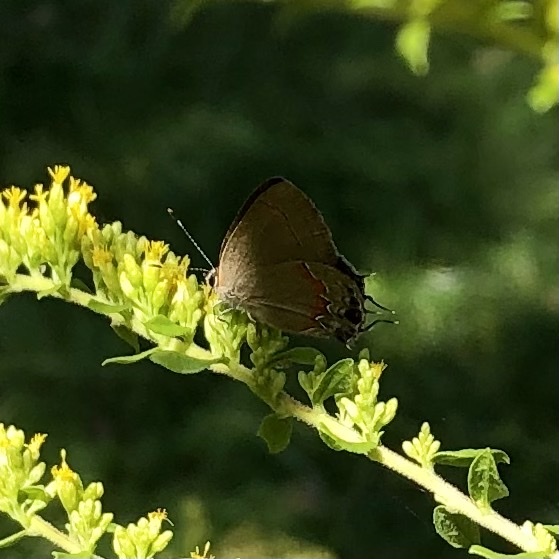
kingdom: Animalia
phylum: Arthropoda
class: Insecta
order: Lepidoptera
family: Lycaenidae
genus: Calycopis
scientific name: Calycopis cecrops
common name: Red-banded hairstreak
